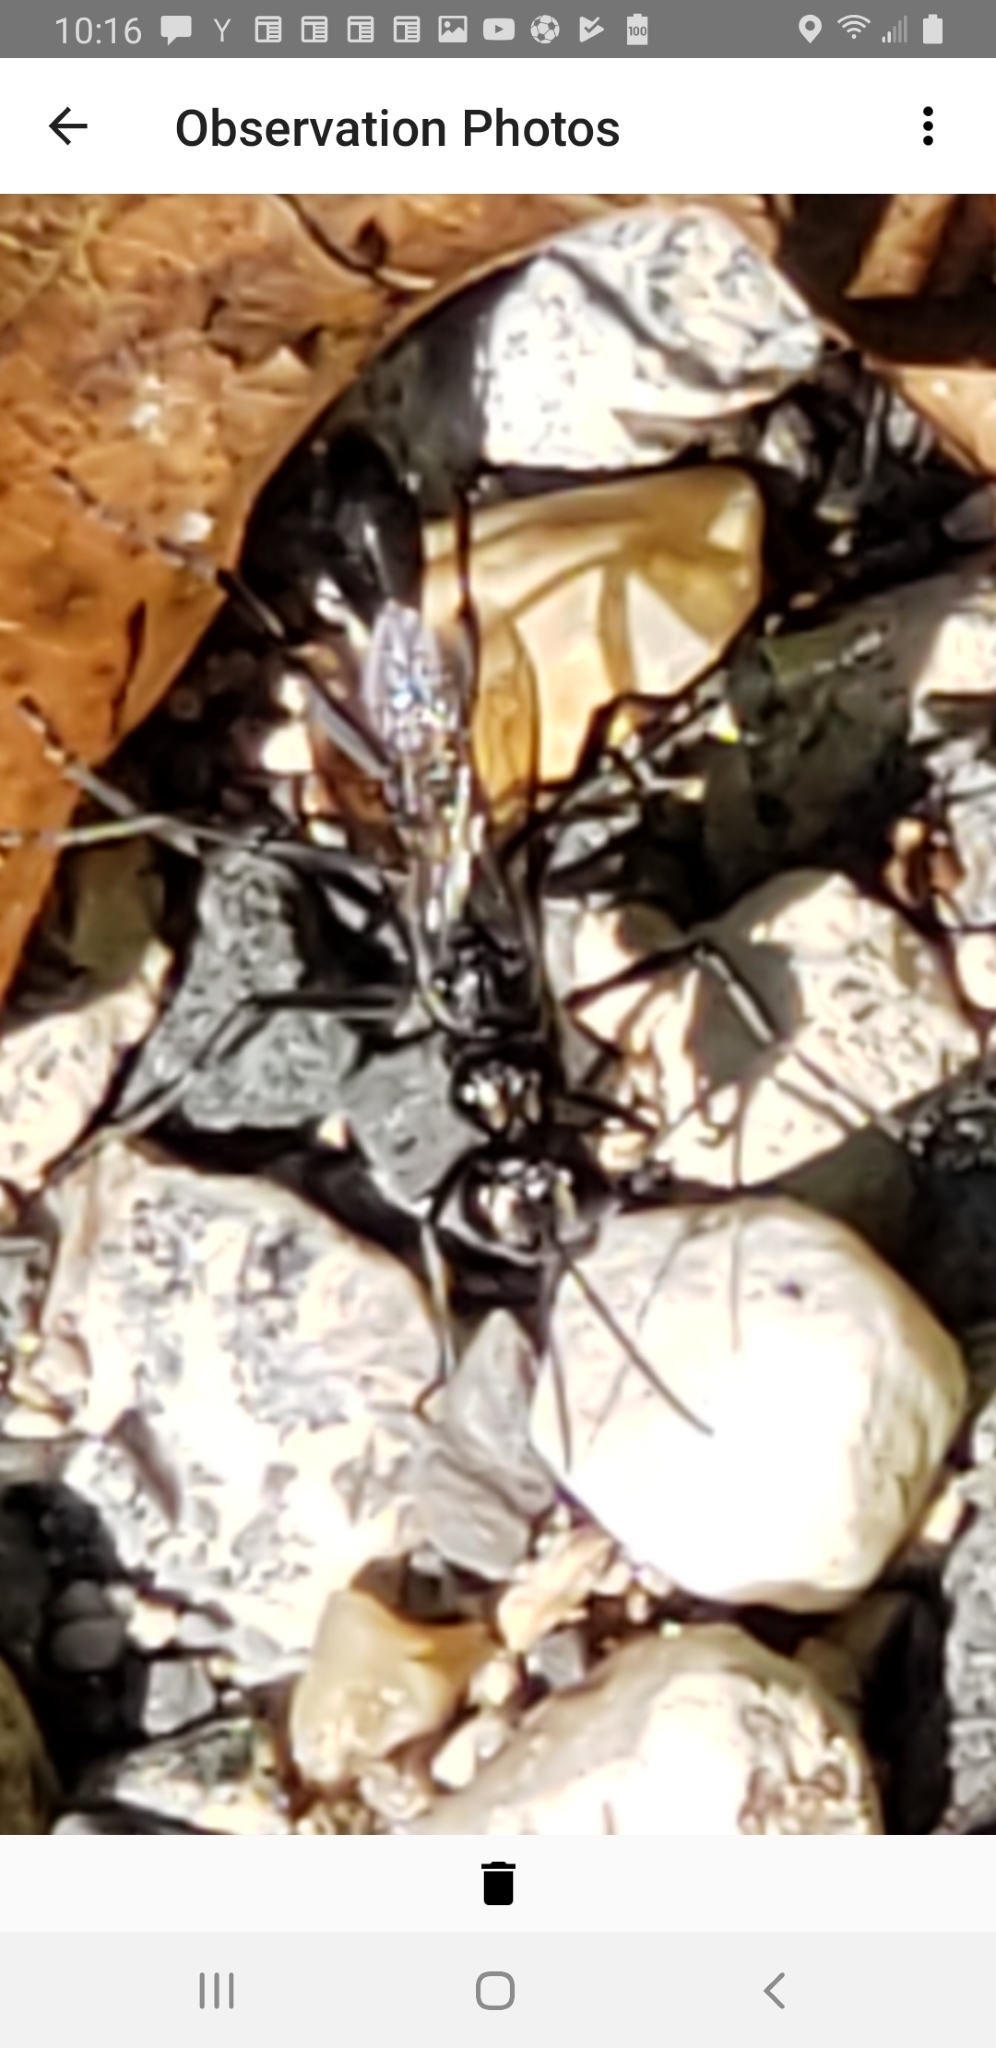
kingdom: Animalia
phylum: Arthropoda
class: Insecta
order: Hymenoptera
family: Sphecidae
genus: Eremnophila
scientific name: Eremnophila aureonotata
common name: Gold-marked thread-waisted wasp
